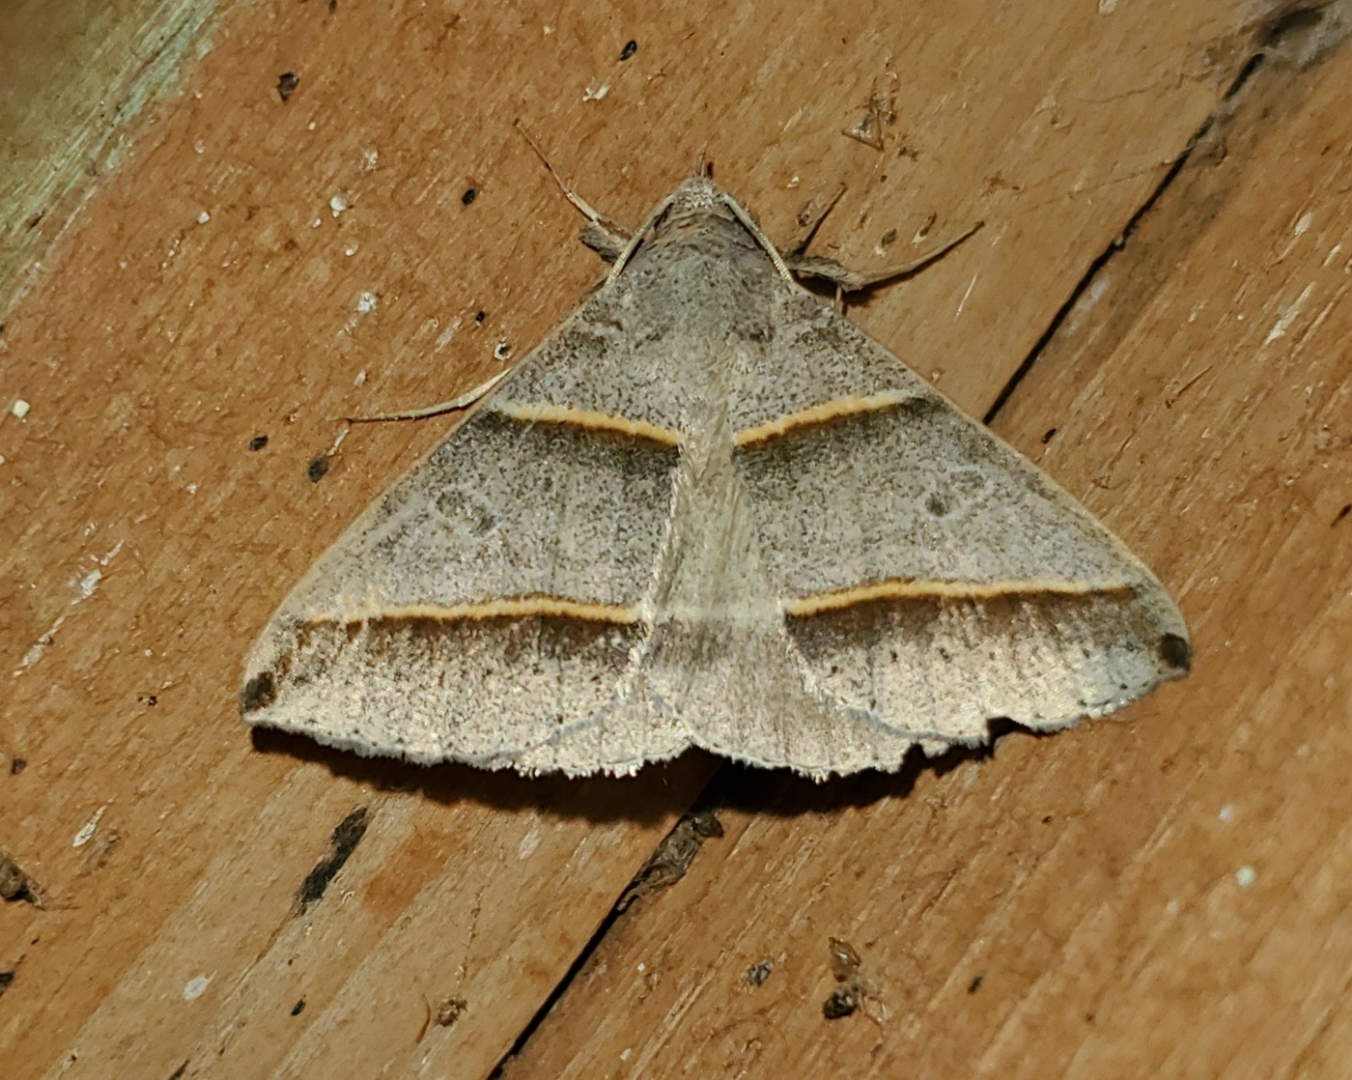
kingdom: Animalia
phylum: Arthropoda
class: Insecta
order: Lepidoptera
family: Erebidae
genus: Ptichodis
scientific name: Ptichodis vinculum
